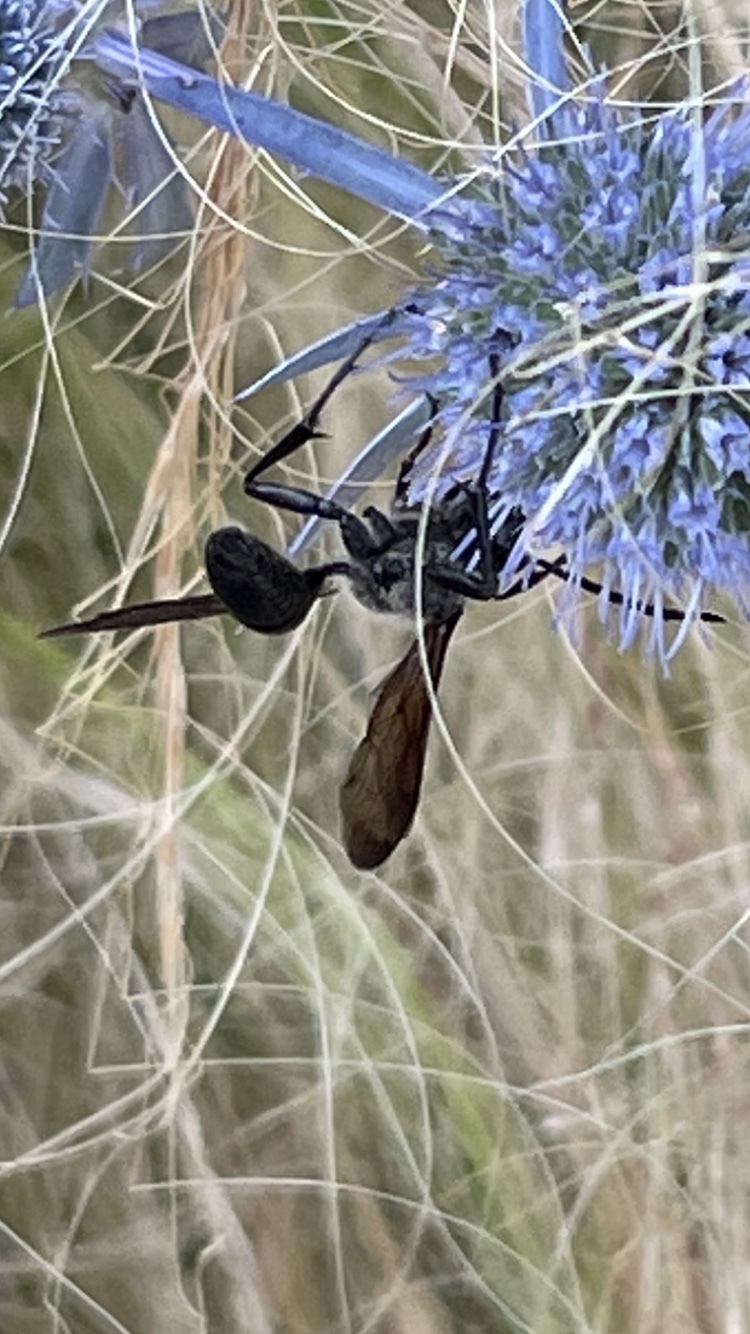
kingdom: Animalia
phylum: Arthropoda
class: Insecta
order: Hymenoptera
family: Sphecidae
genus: Isodontia
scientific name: Isodontia mexicana
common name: Mud dauber
